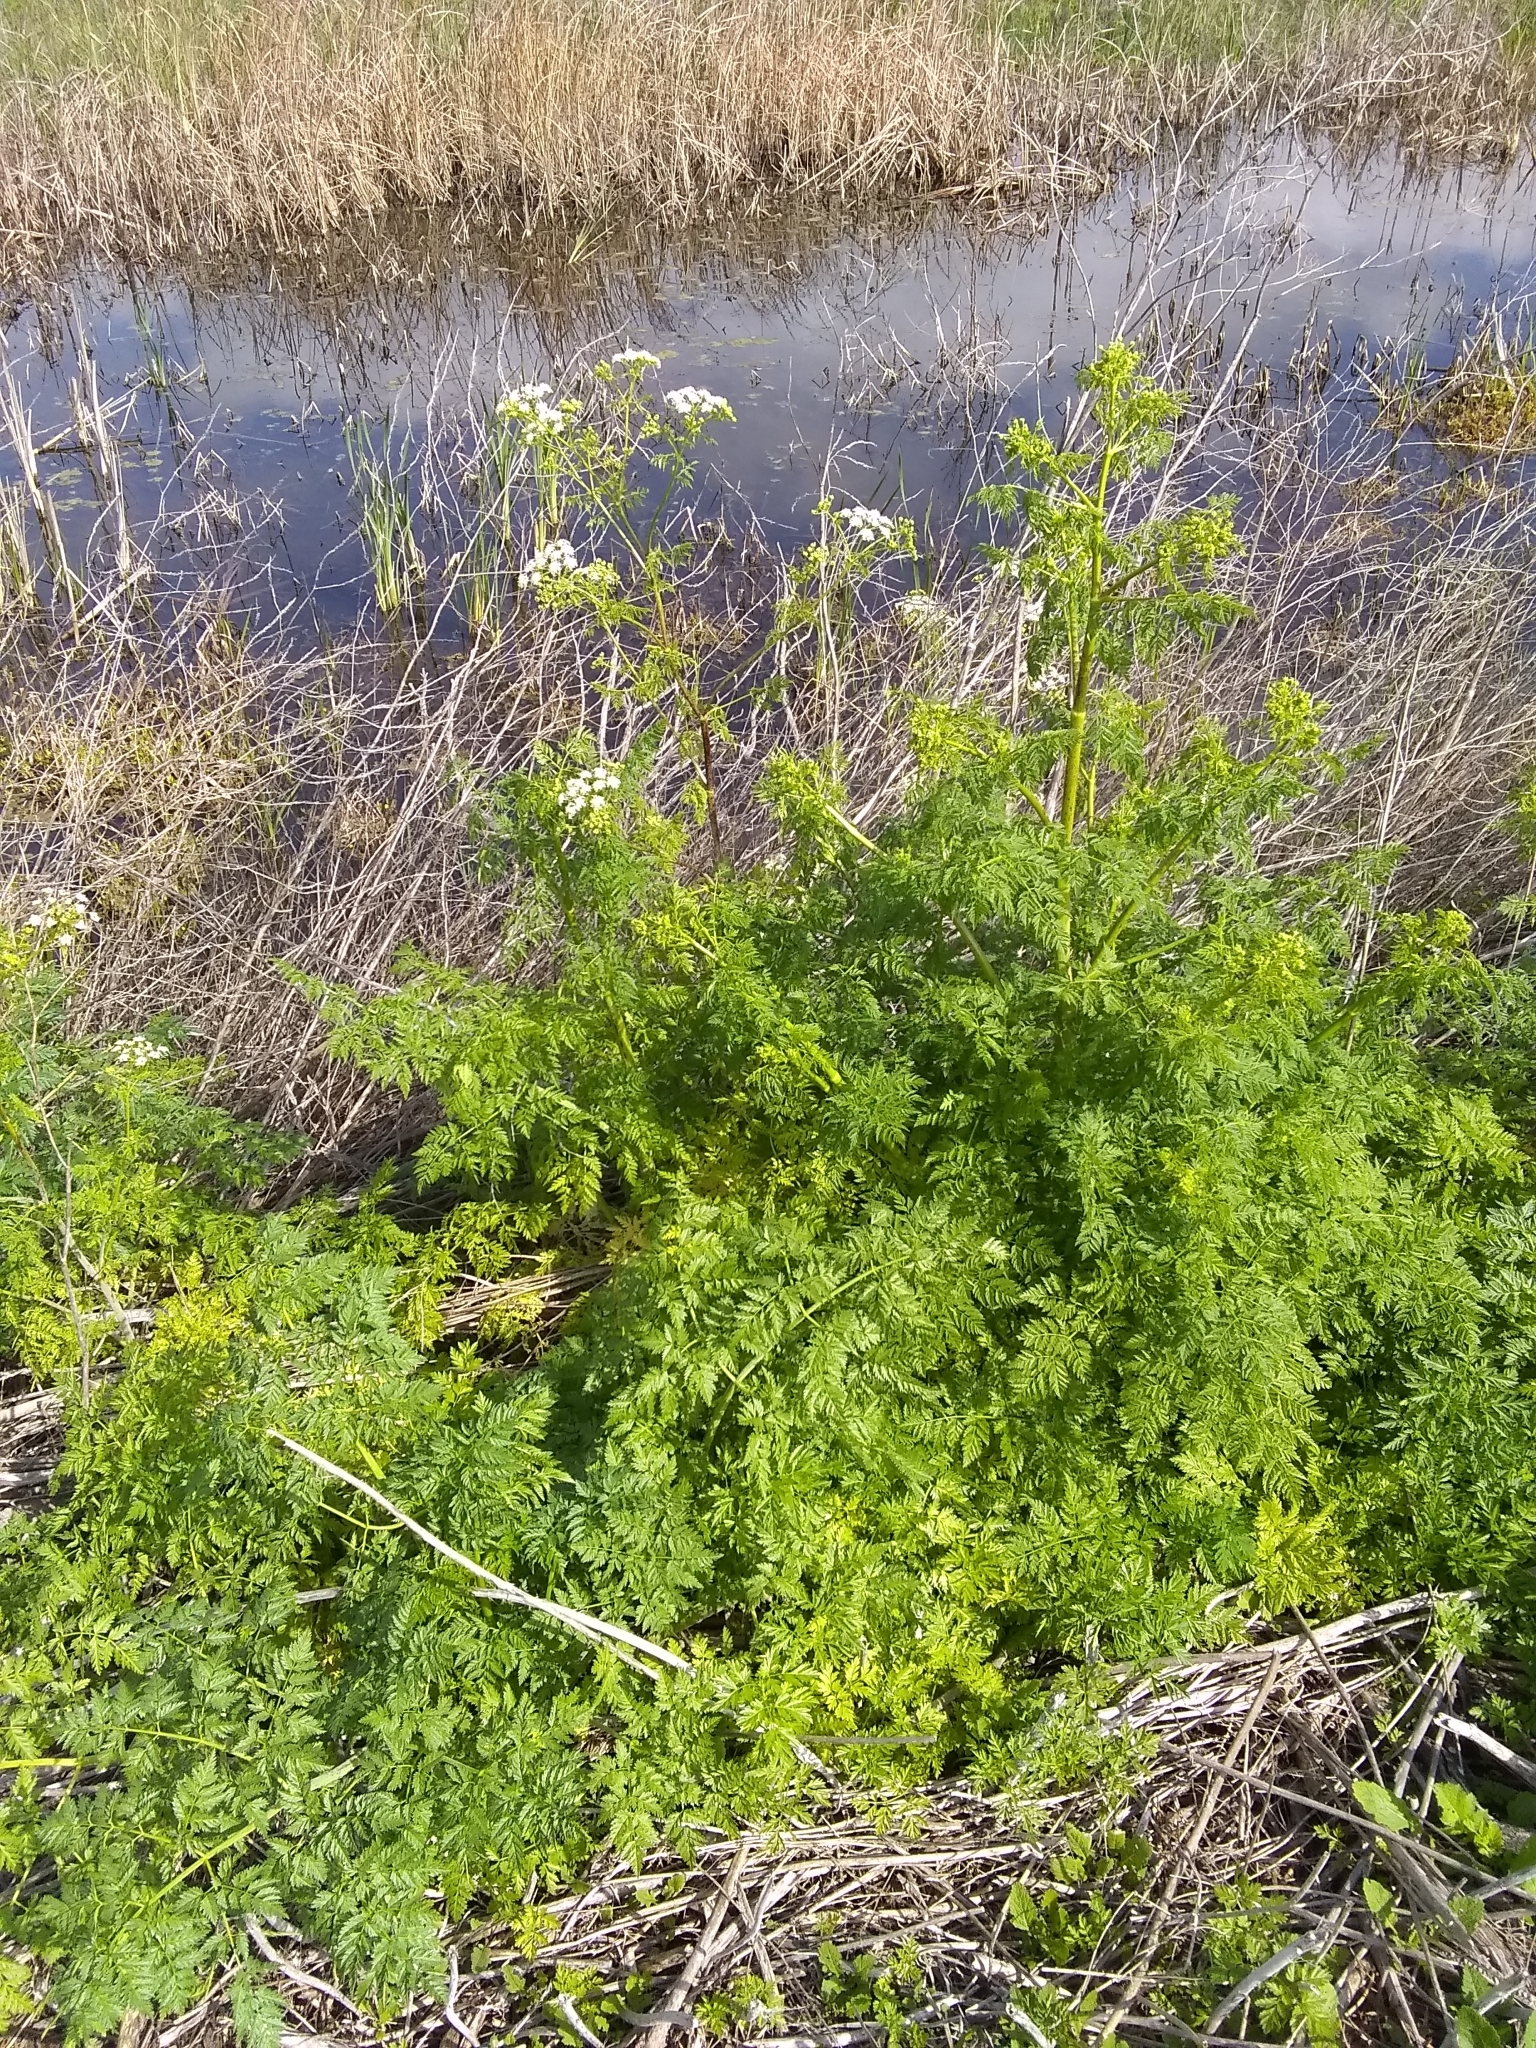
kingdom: Plantae
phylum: Tracheophyta
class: Magnoliopsida
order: Apiales
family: Apiaceae
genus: Conium
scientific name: Conium maculatum
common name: Hemlock
